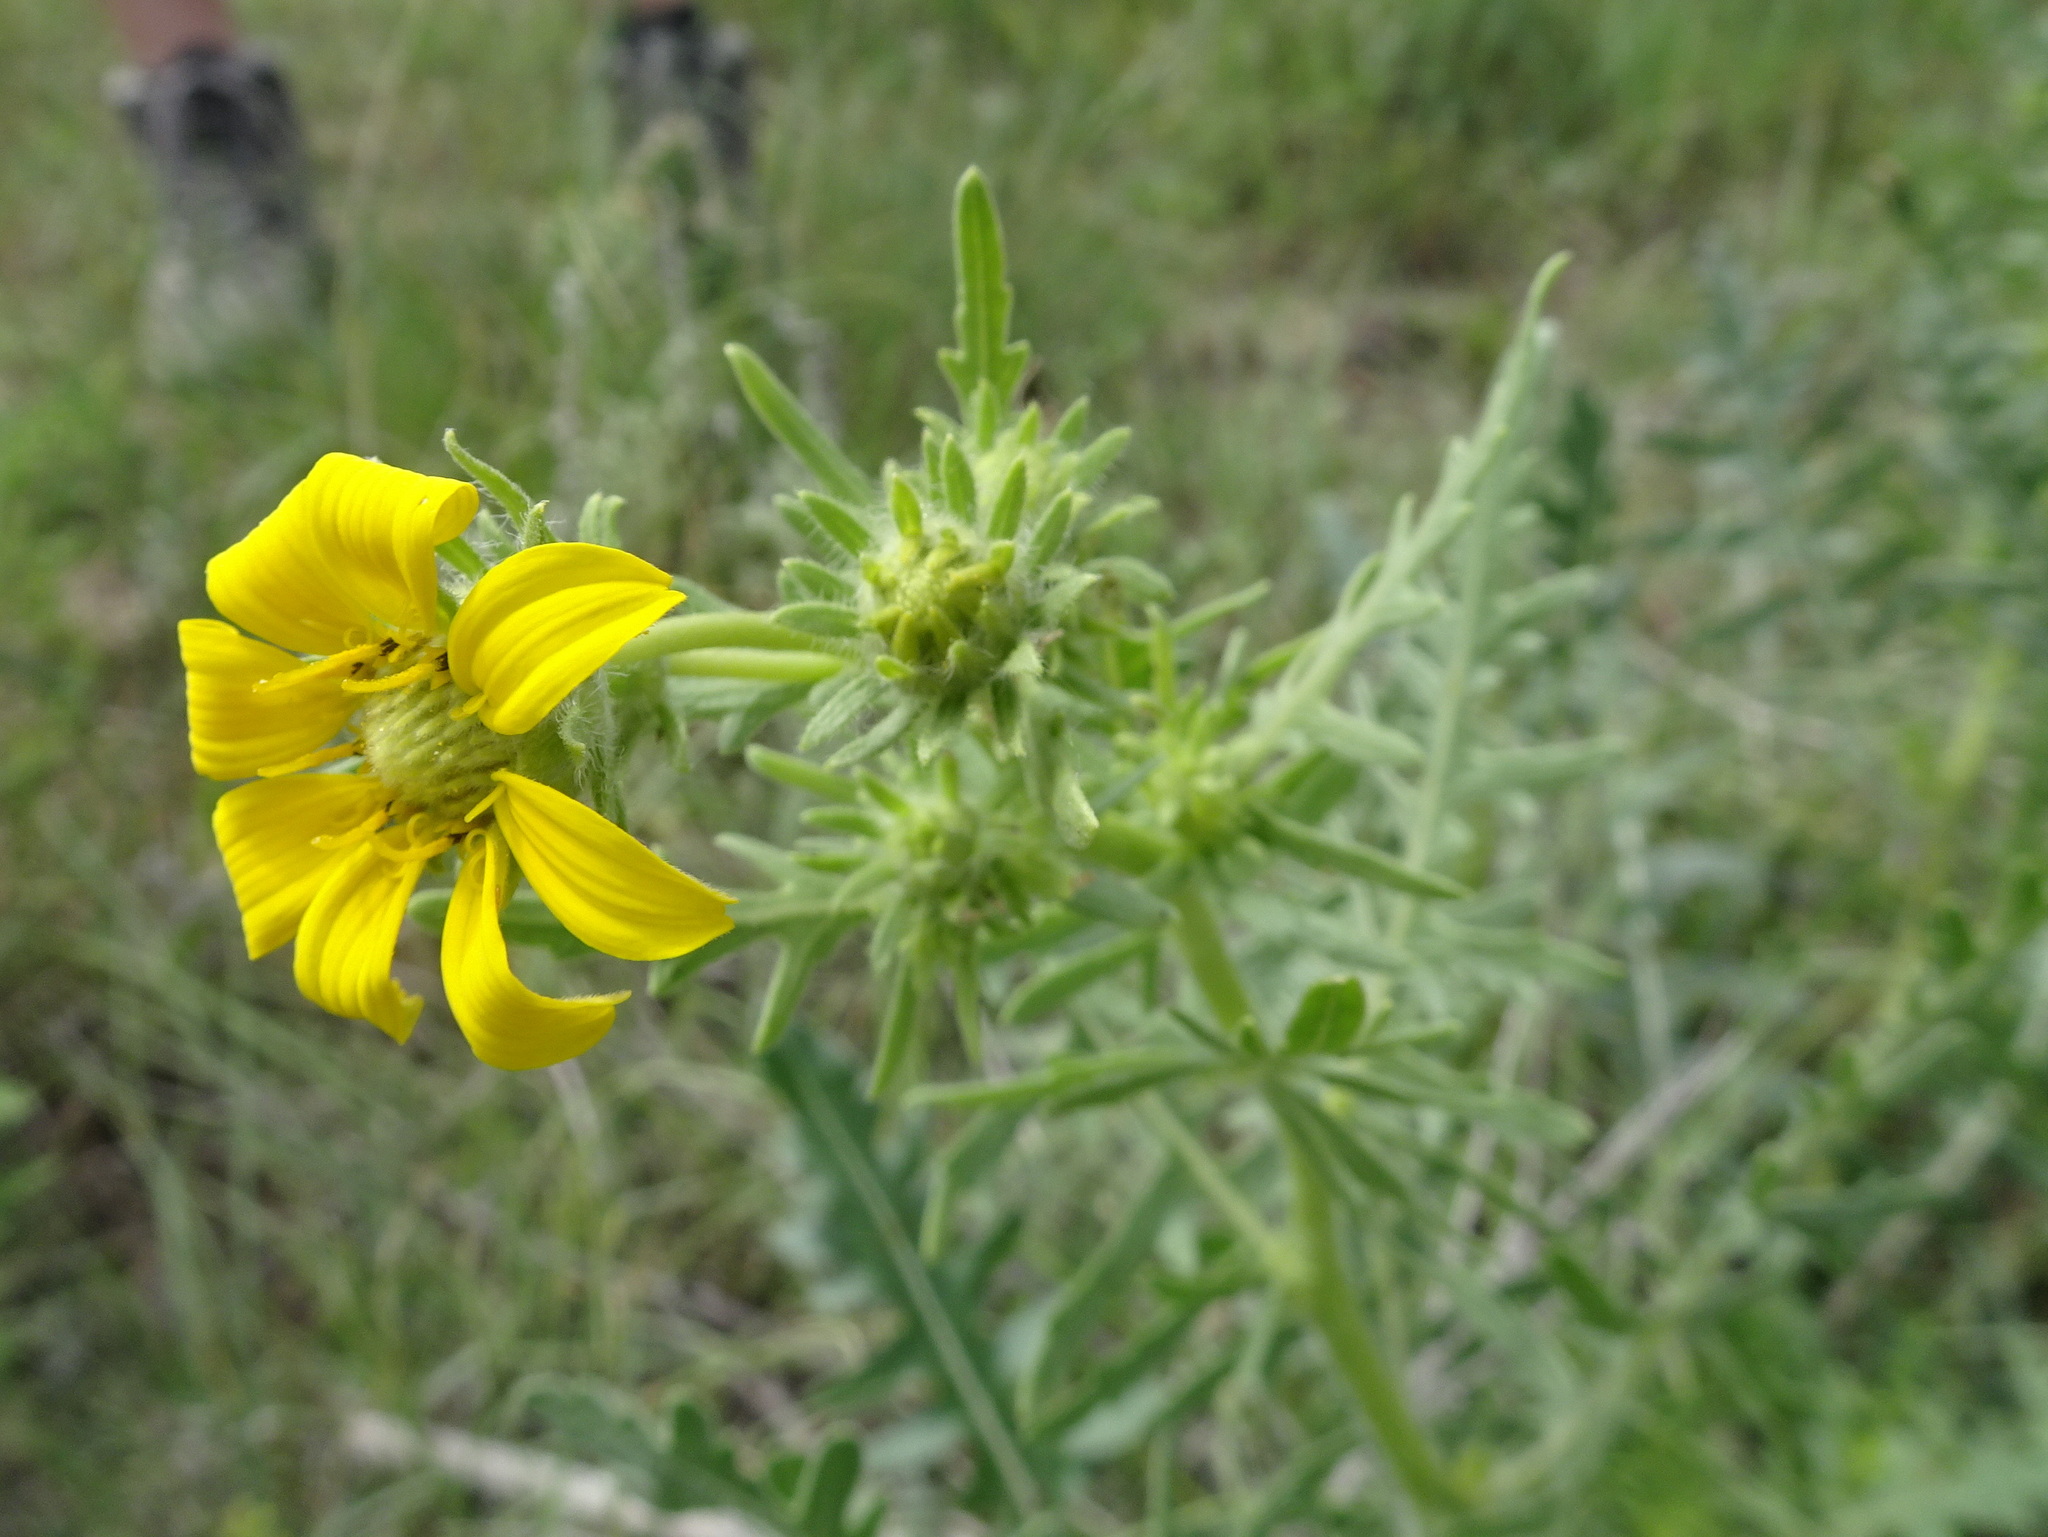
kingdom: Plantae
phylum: Tracheophyta
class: Magnoliopsida
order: Asterales
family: Asteraceae
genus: Engelmannia
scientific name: Engelmannia peristenia
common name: Engelmann's daisy
